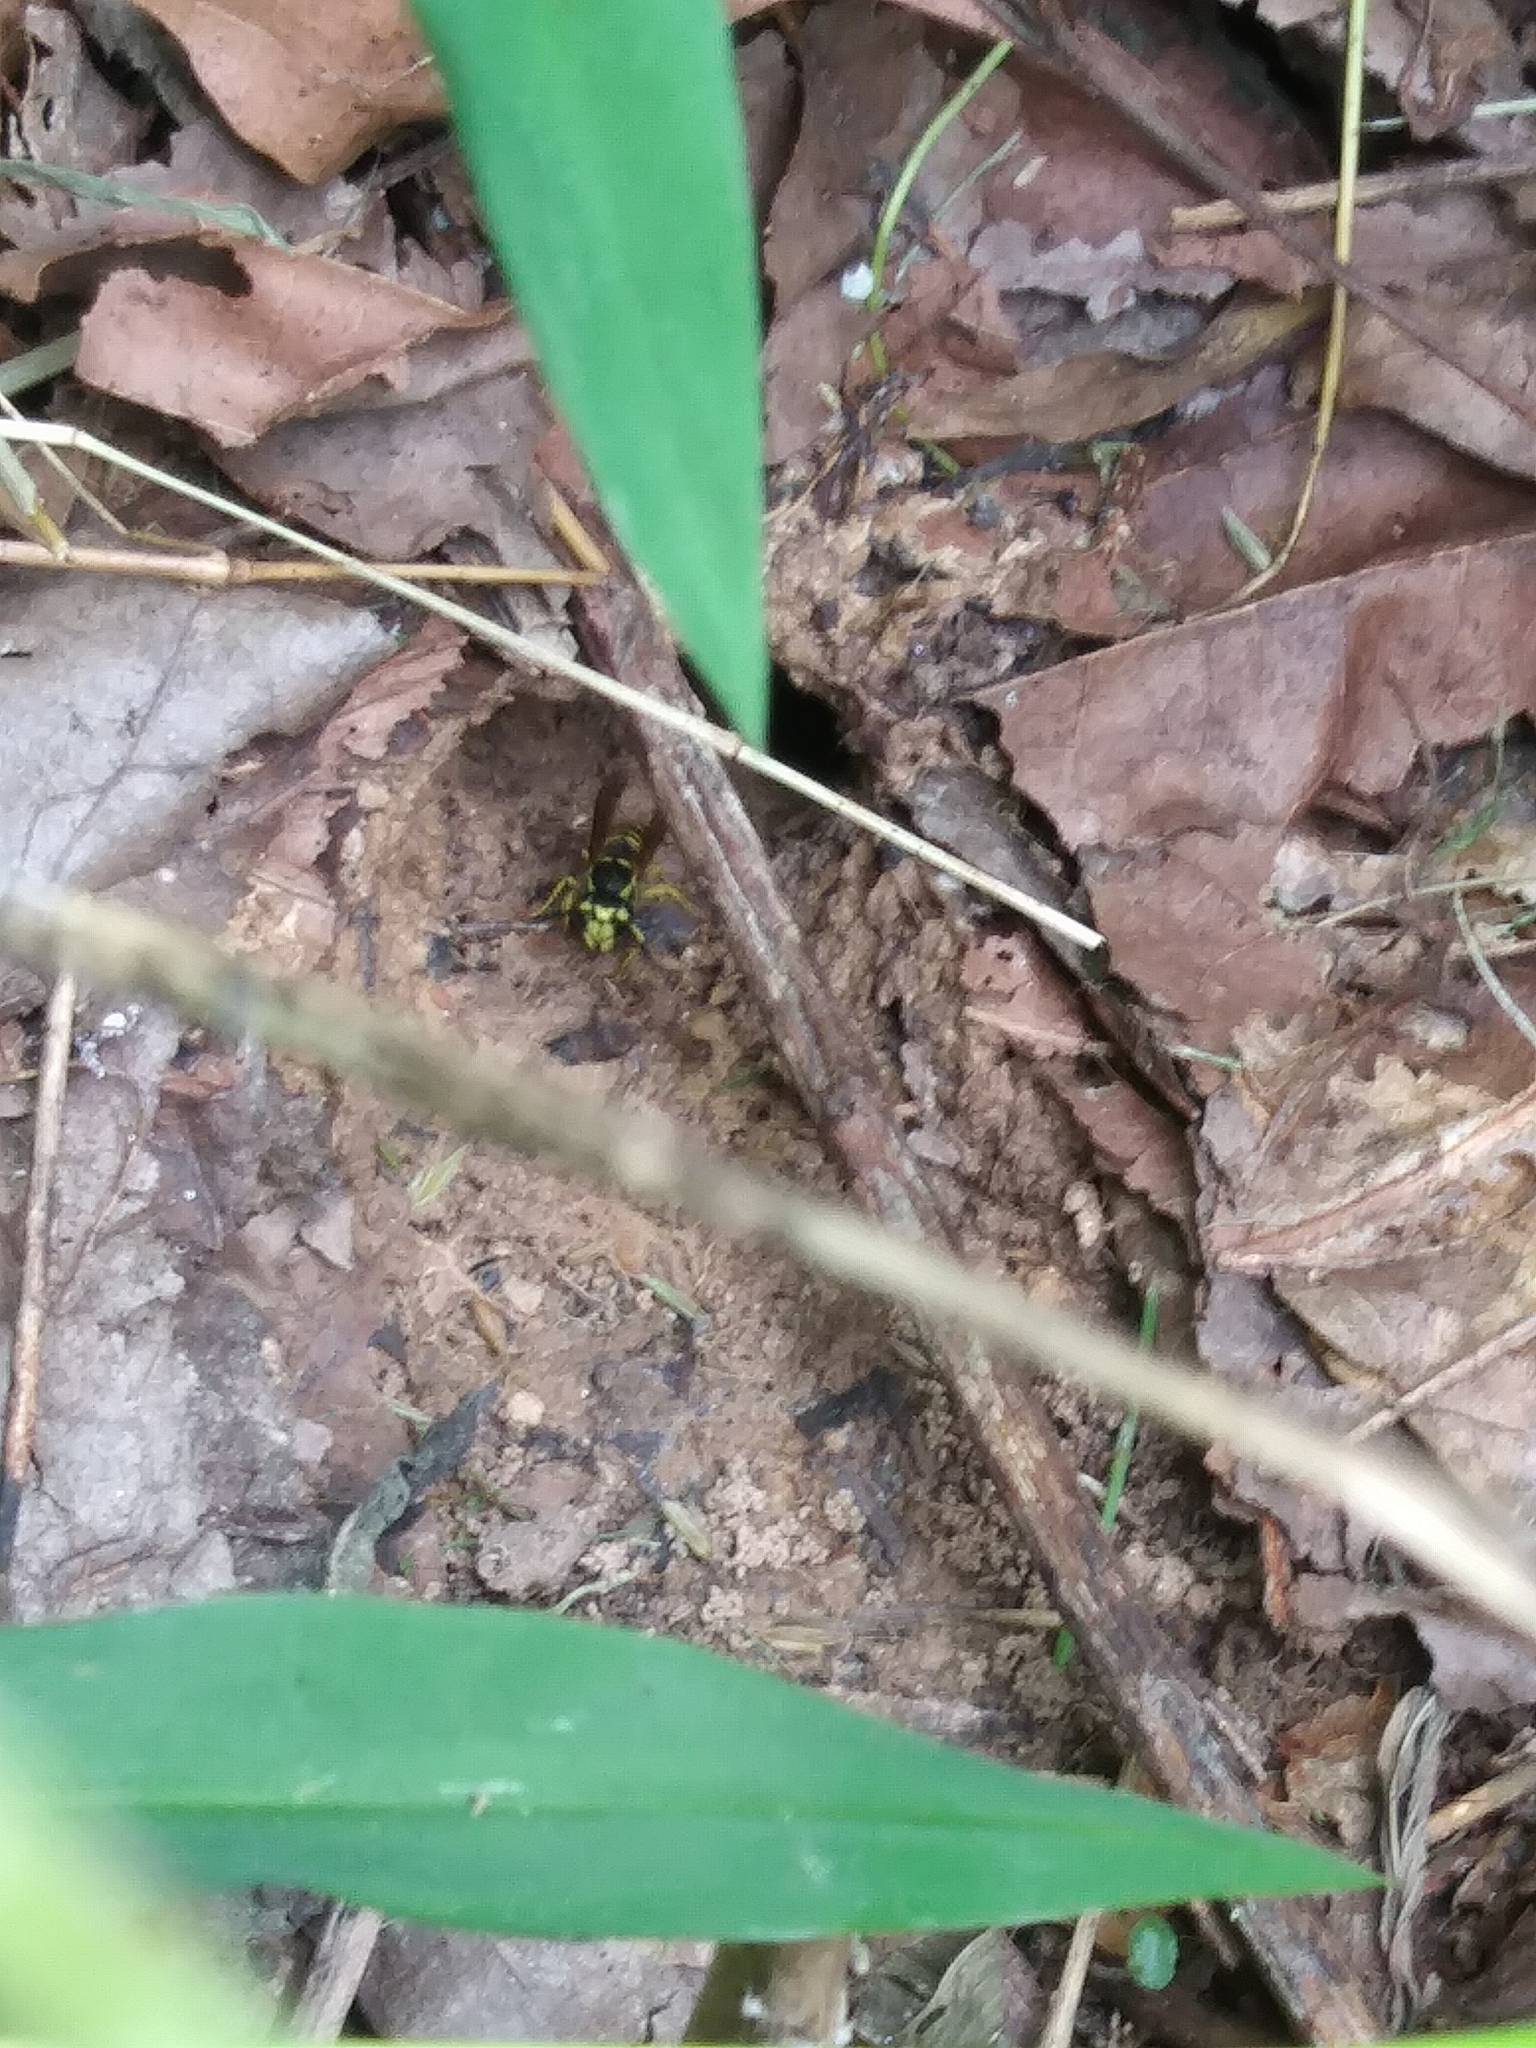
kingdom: Animalia
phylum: Arthropoda
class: Insecta
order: Hymenoptera
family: Vespidae
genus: Vespula
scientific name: Vespula
